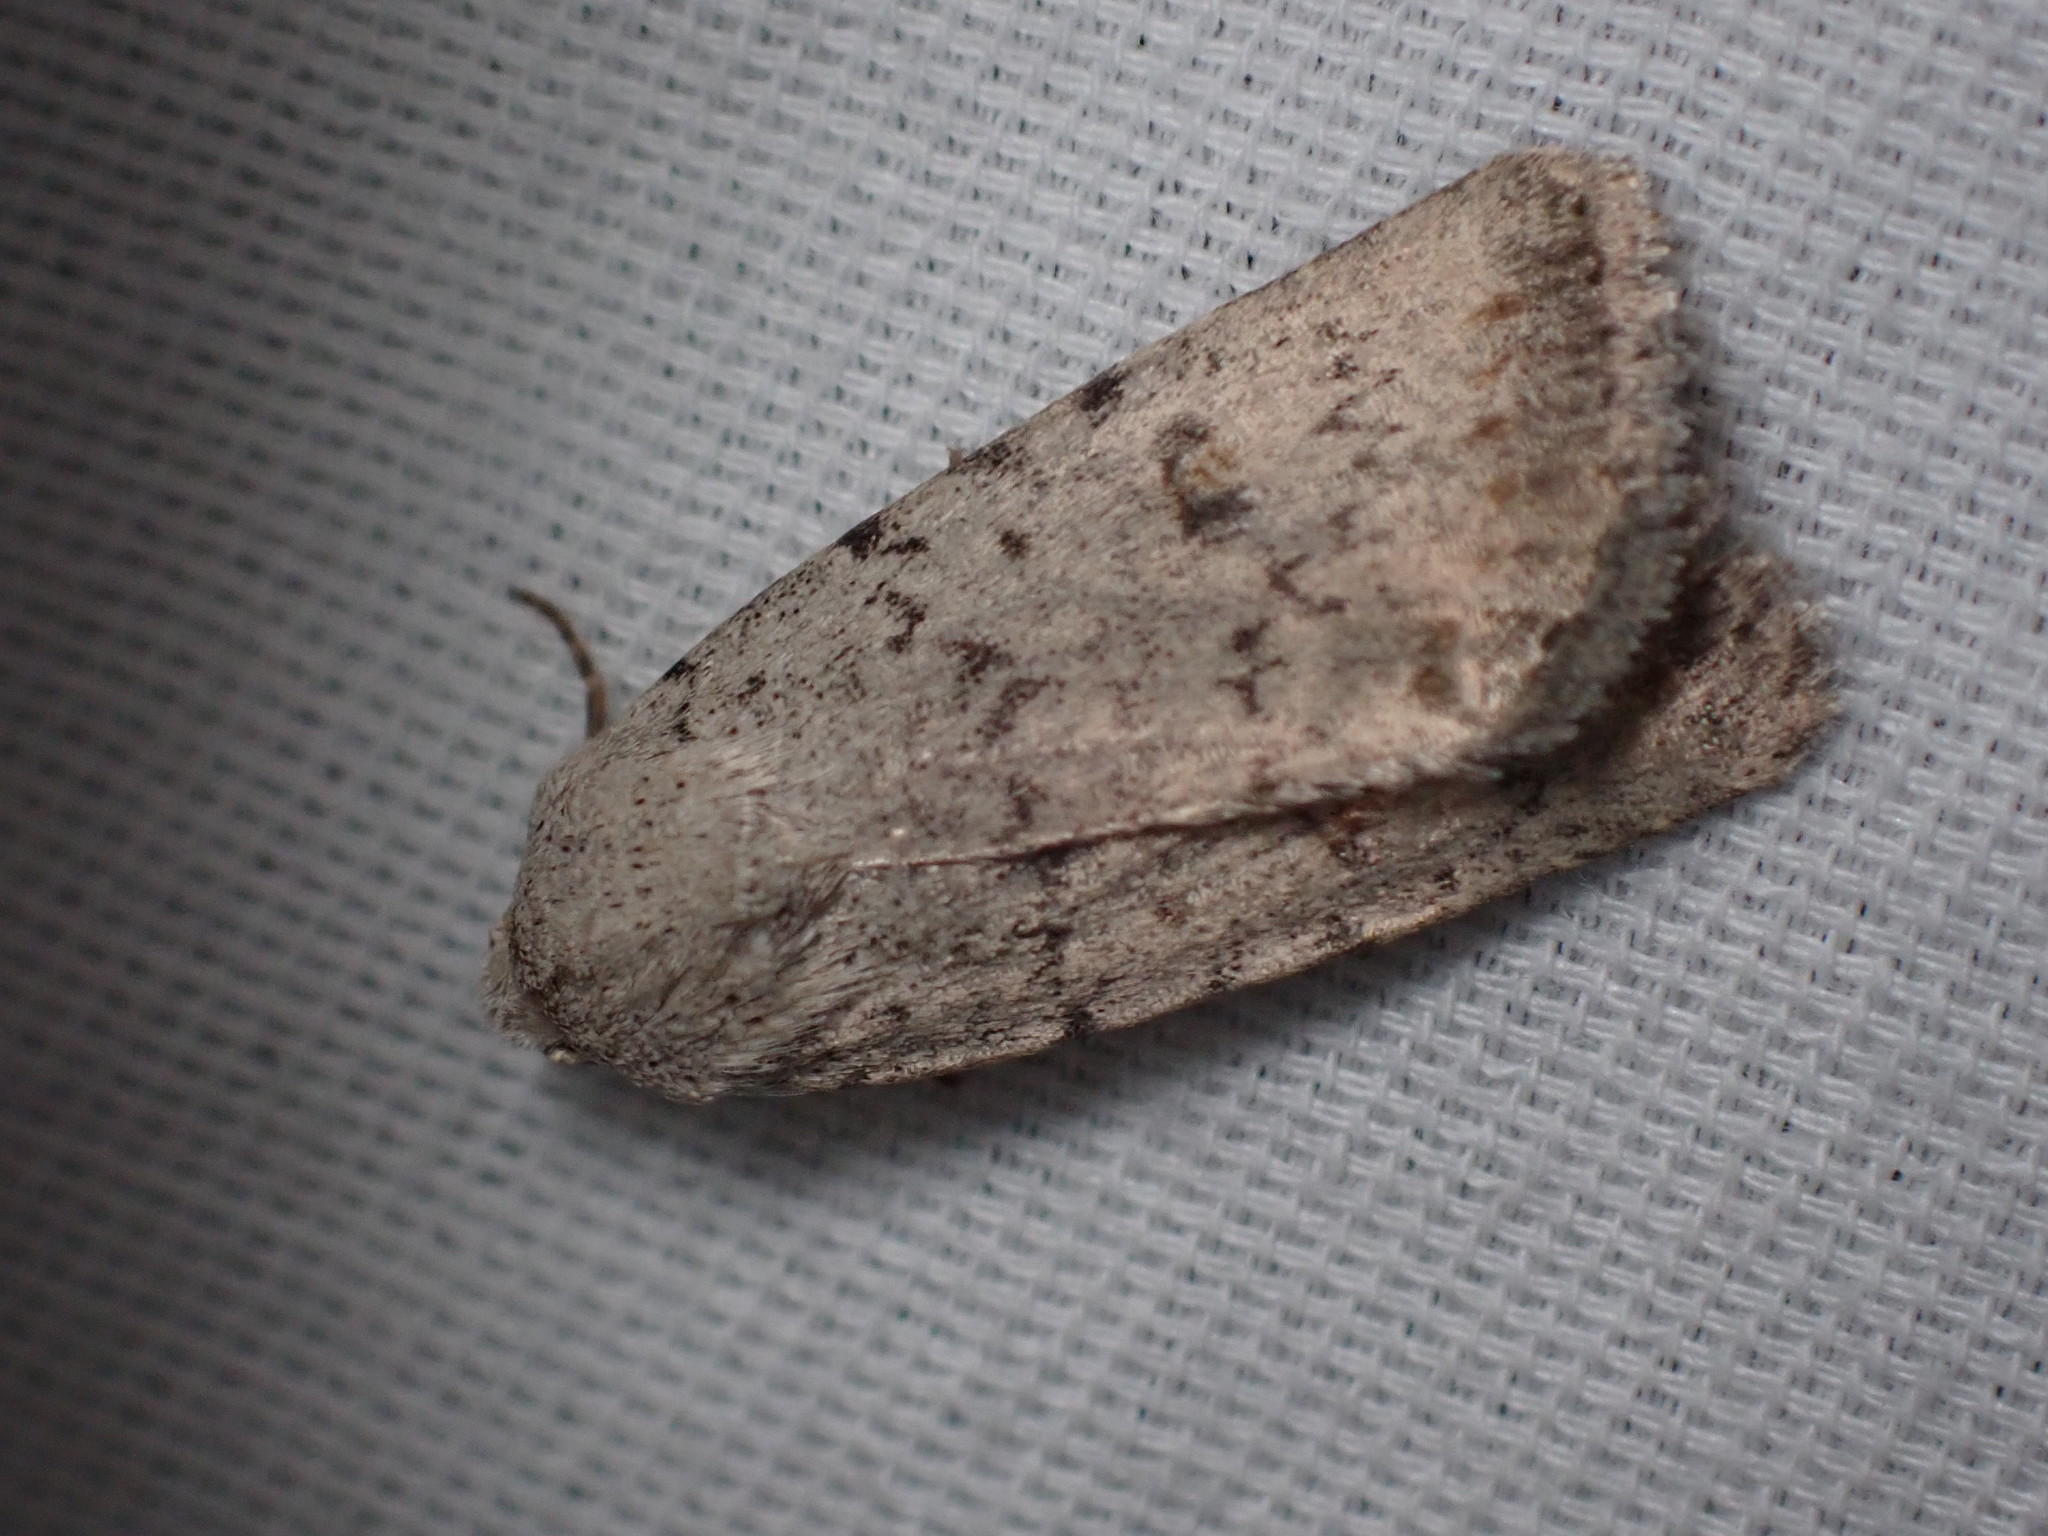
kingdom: Animalia
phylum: Arthropoda
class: Insecta
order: Lepidoptera
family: Noctuidae
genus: Caradrina
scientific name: Caradrina montana
